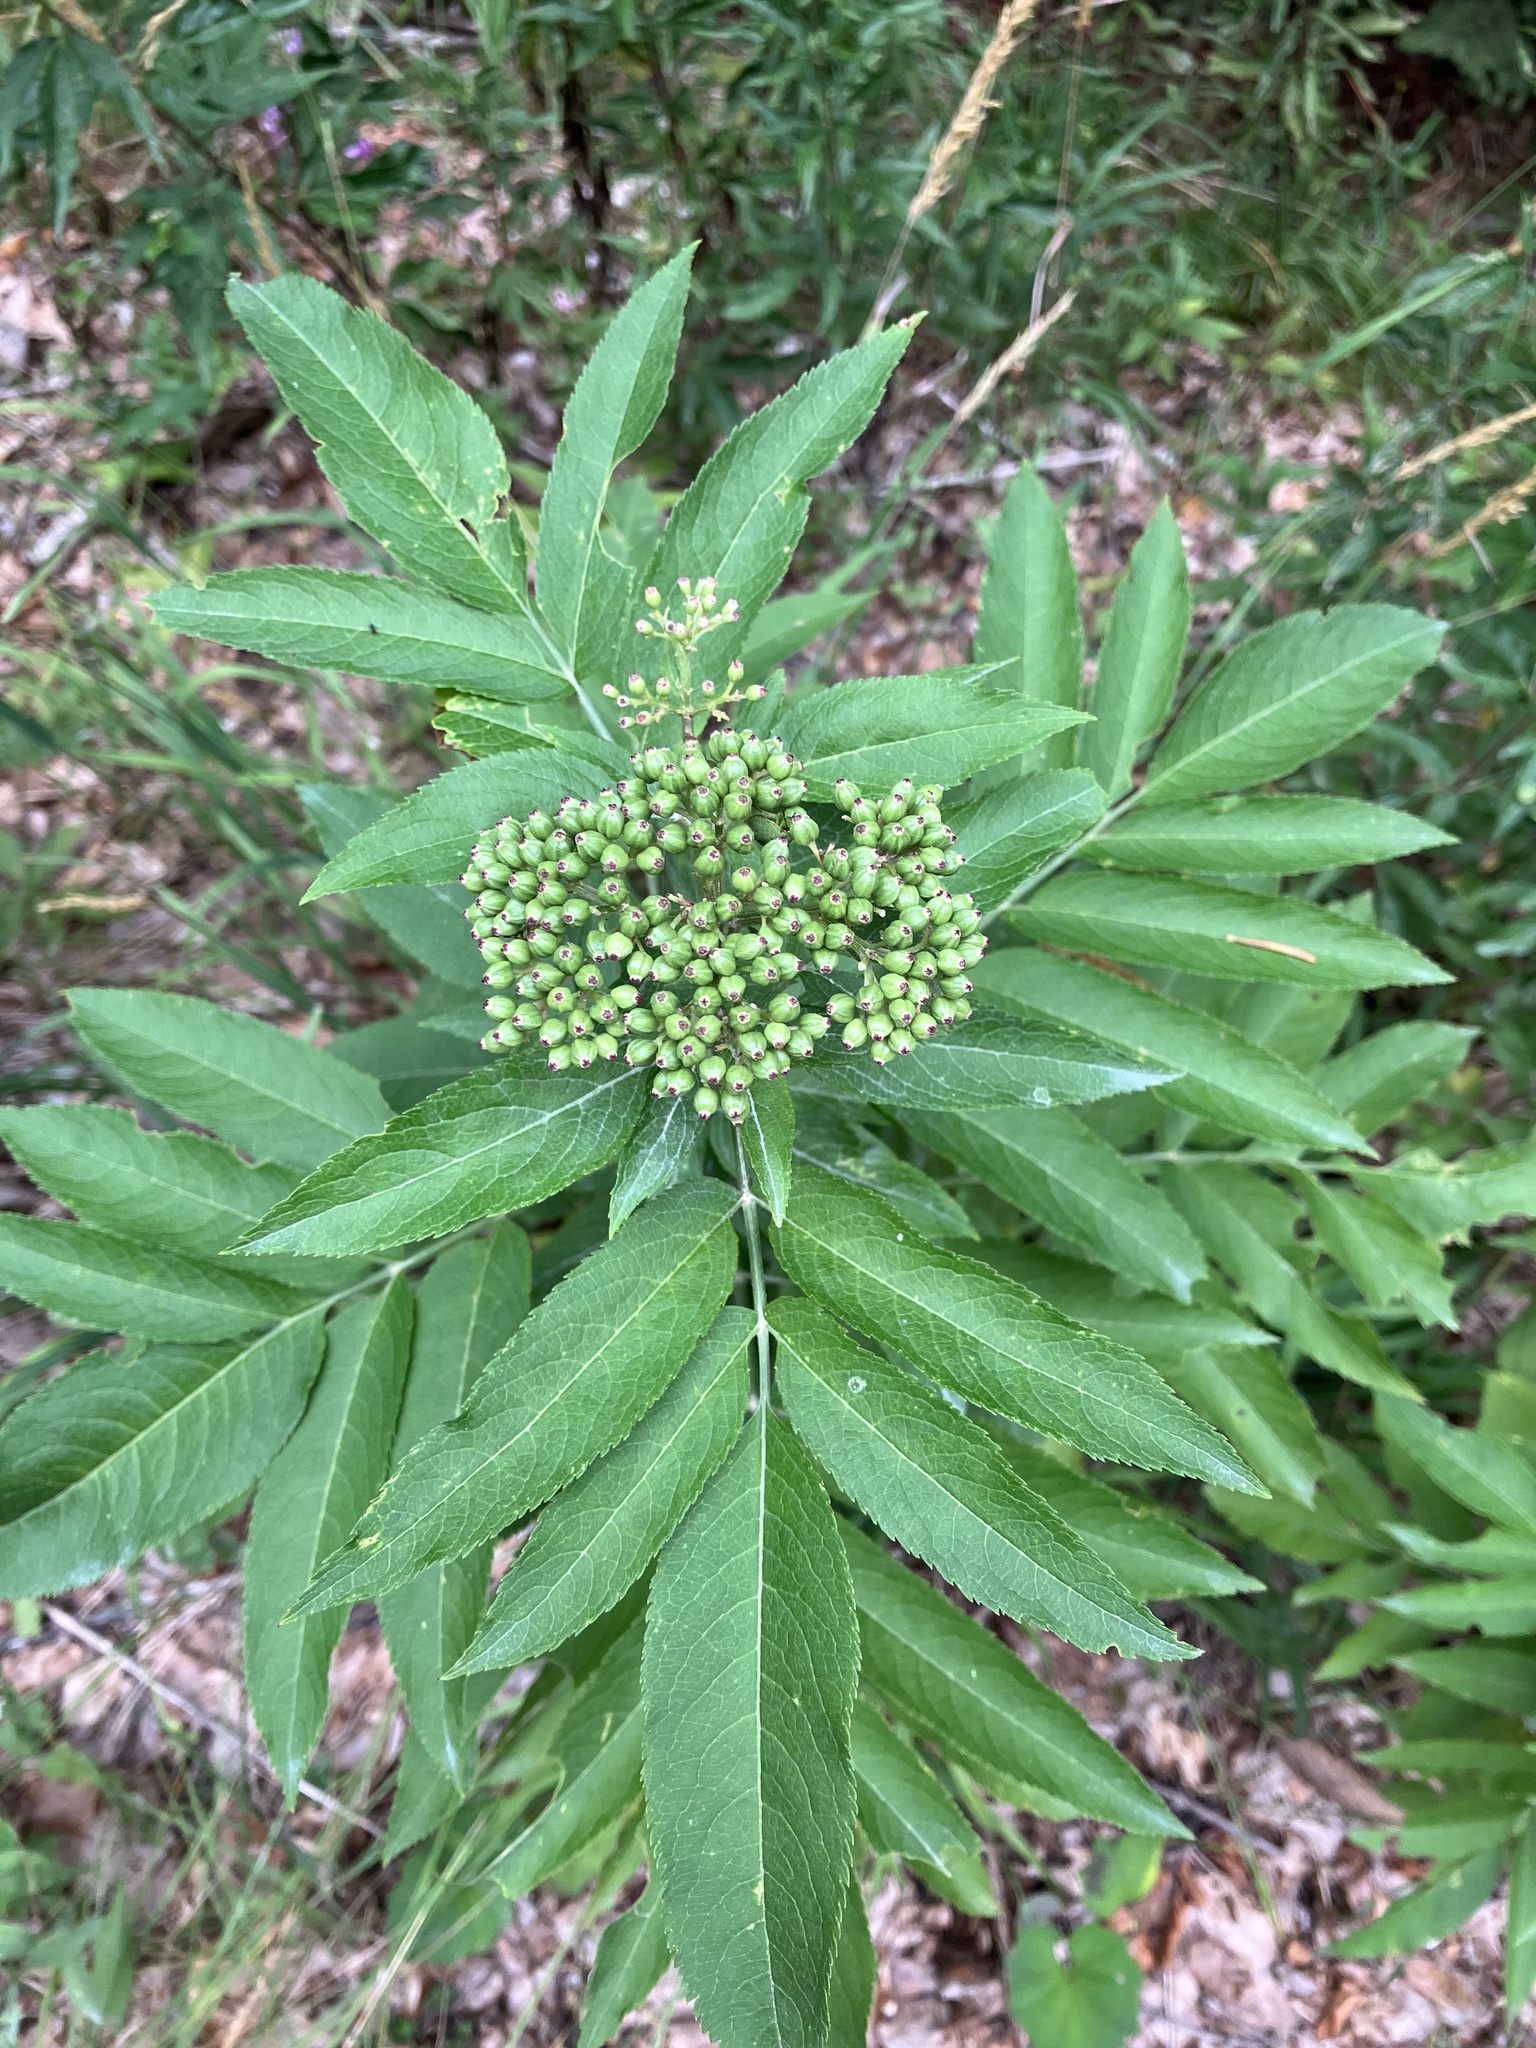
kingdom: Plantae
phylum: Tracheophyta
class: Magnoliopsida
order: Dipsacales
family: Viburnaceae
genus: Sambucus
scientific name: Sambucus ebulus
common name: Dwarf elder
